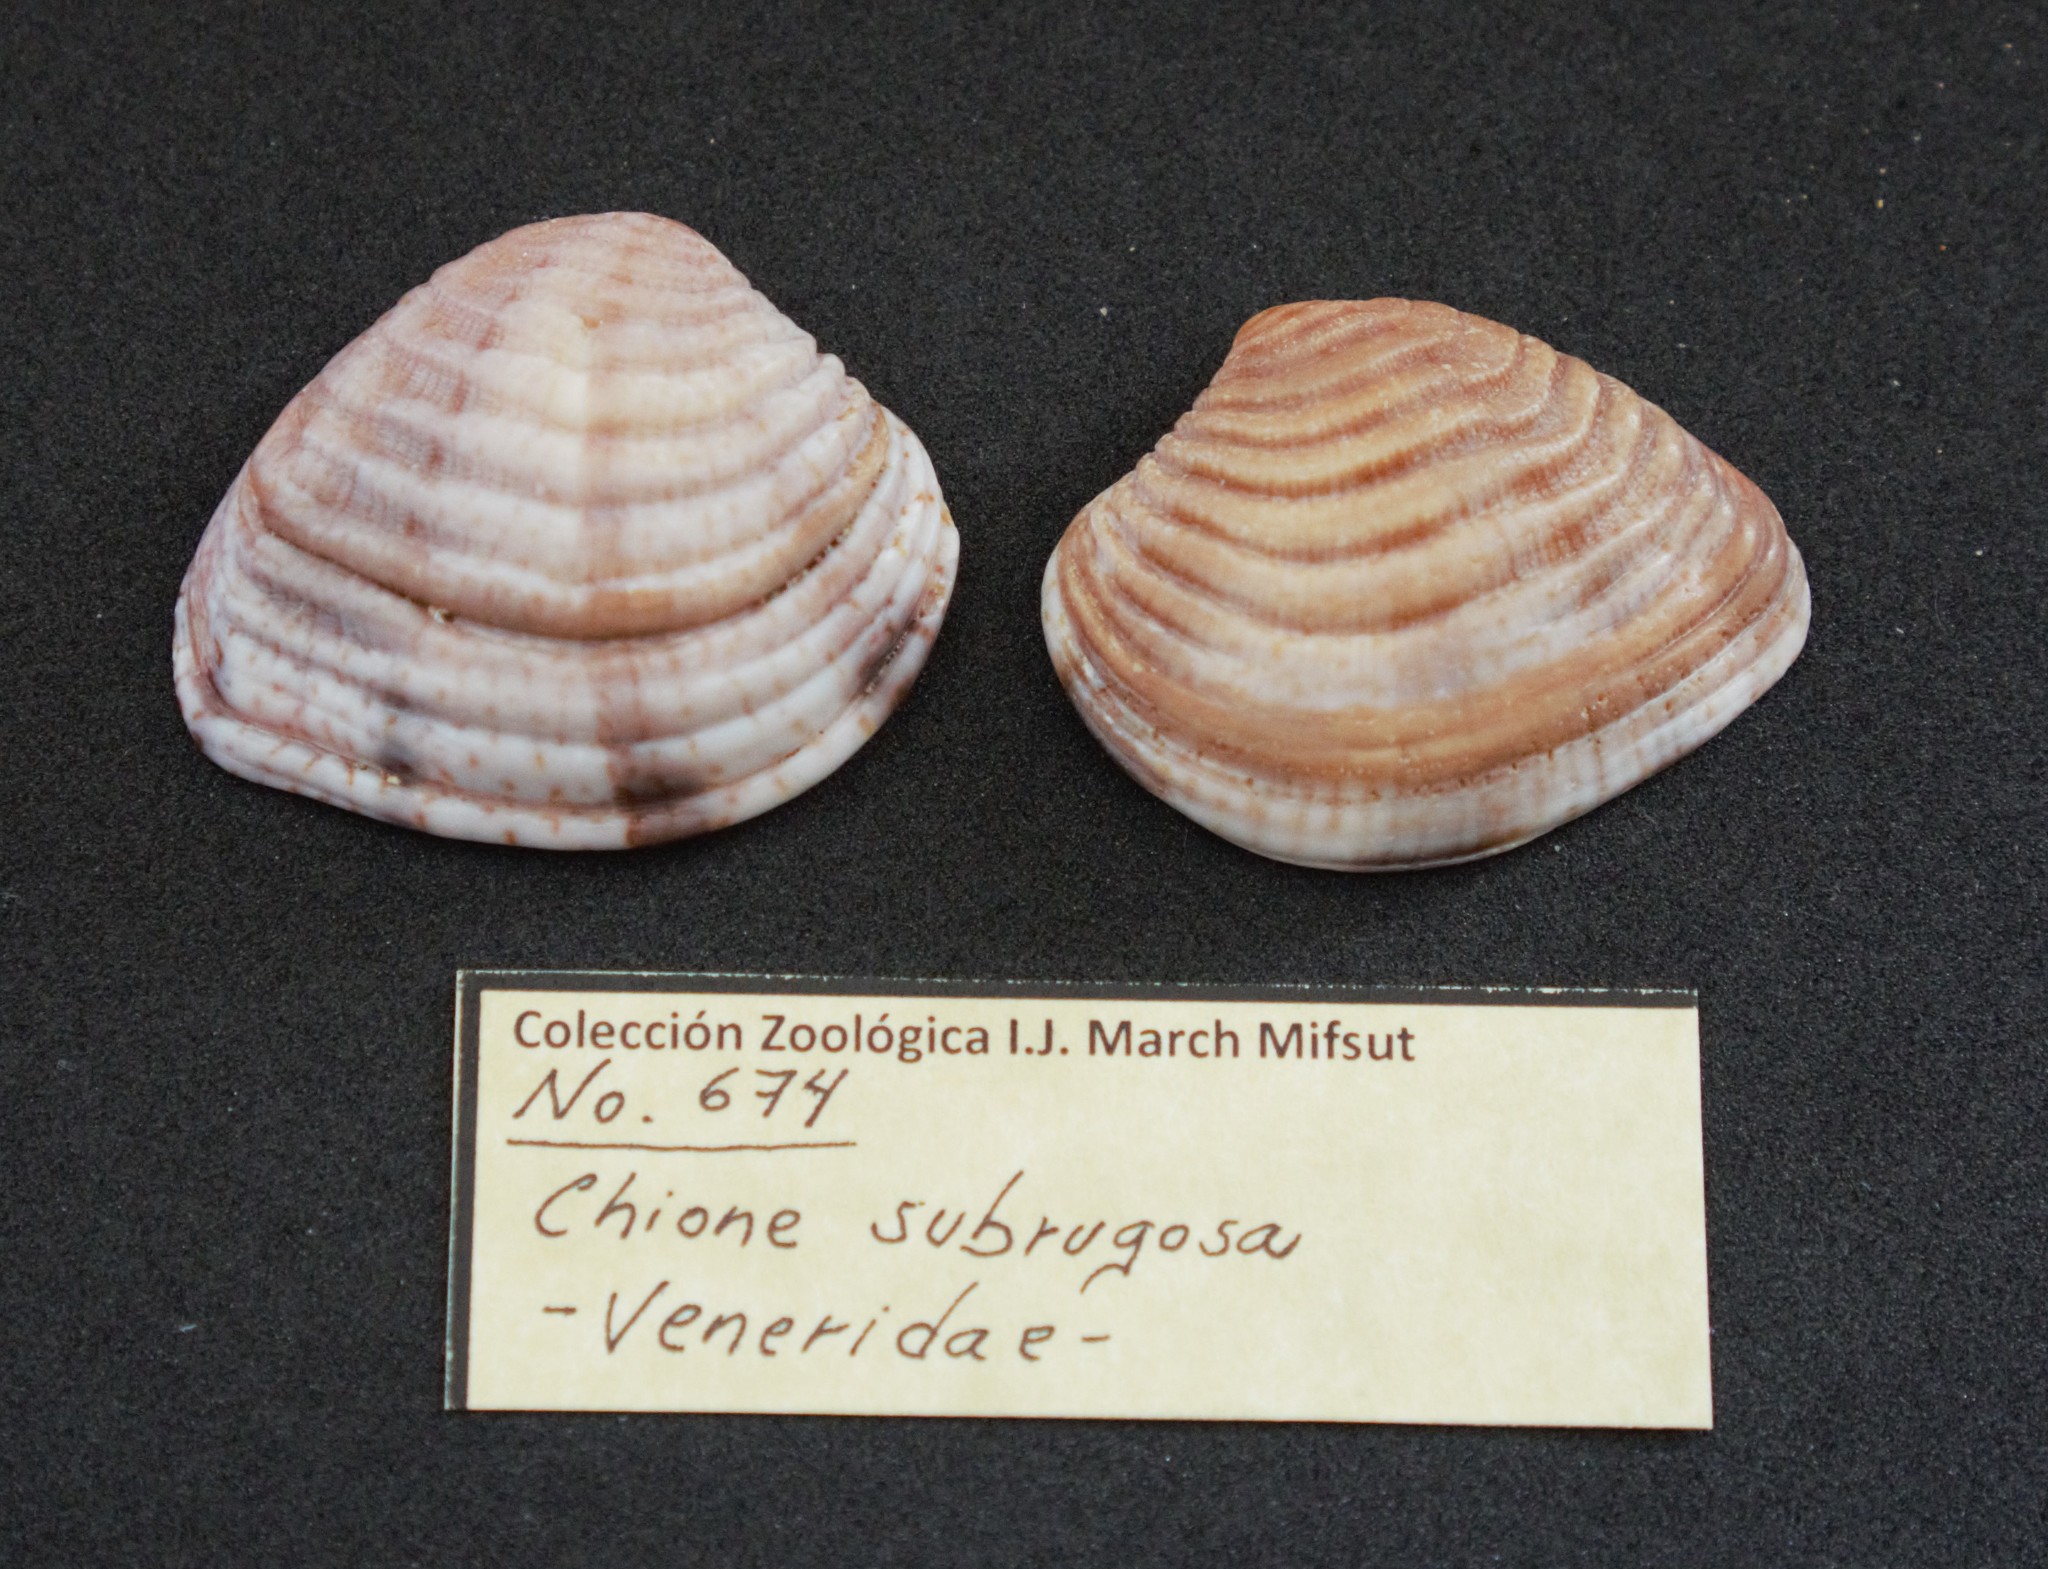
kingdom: Animalia
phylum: Mollusca
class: Bivalvia
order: Venerida
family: Veneridae
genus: Iliochione
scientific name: Iliochione subrugosa
